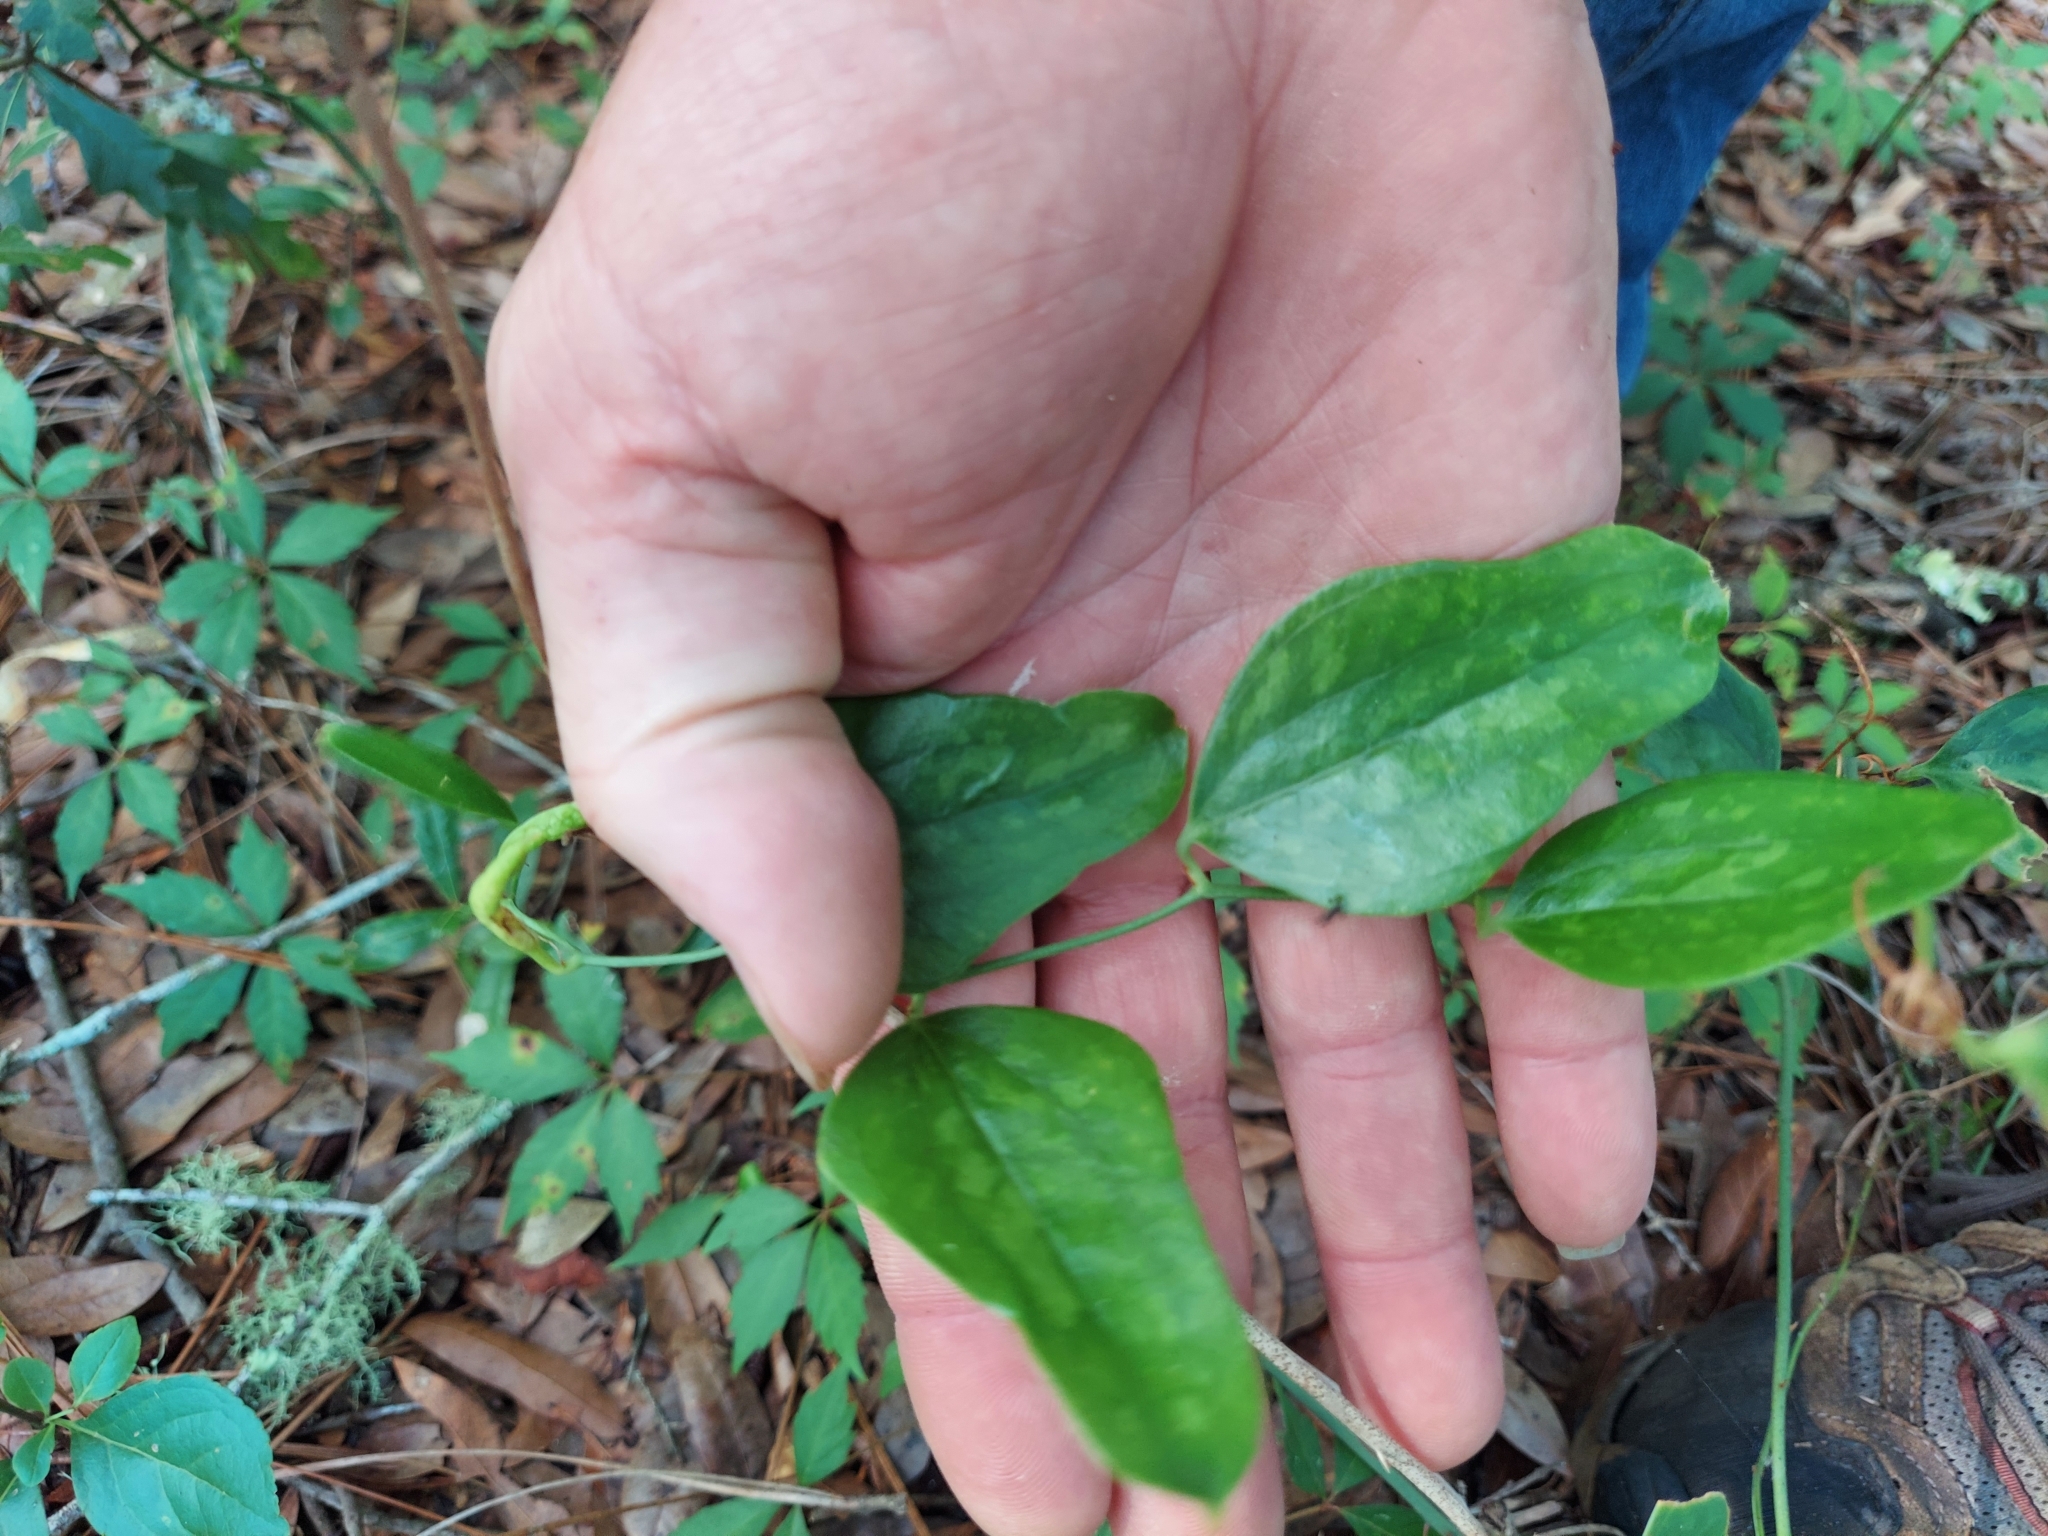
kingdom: Plantae
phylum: Tracheophyta
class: Liliopsida
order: Liliales
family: Smilacaceae
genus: Smilax
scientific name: Smilax auriculata
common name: Wild bamboo
